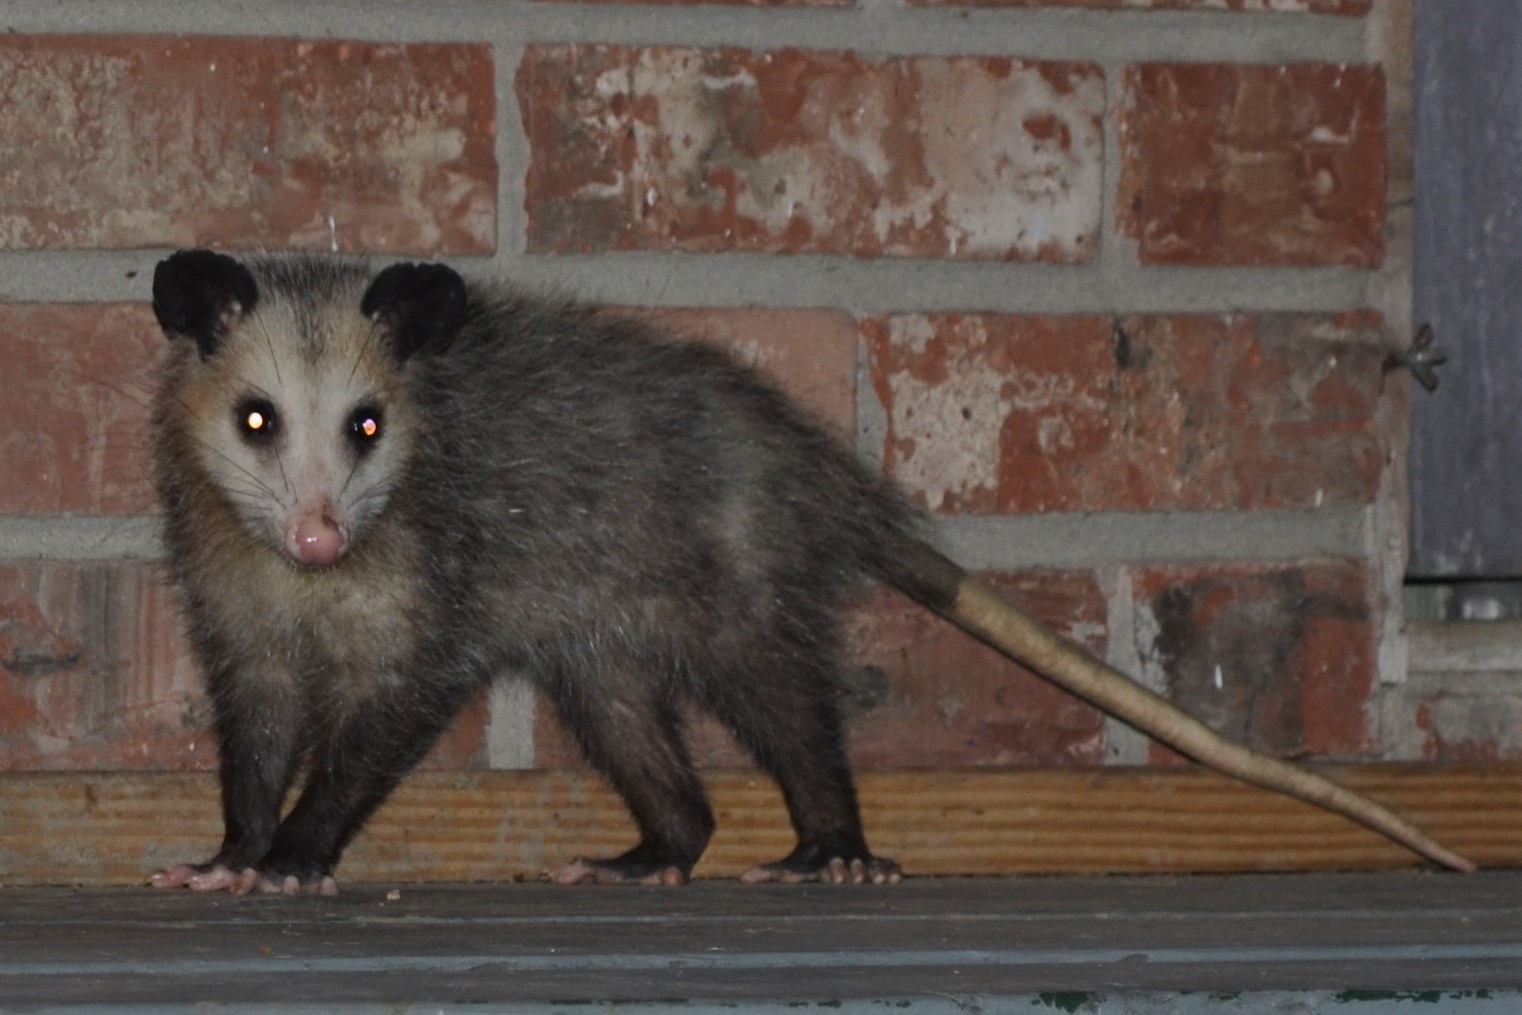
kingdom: Animalia
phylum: Chordata
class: Mammalia
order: Didelphimorphia
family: Didelphidae
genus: Didelphis
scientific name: Didelphis virginiana
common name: Virginia opossum
